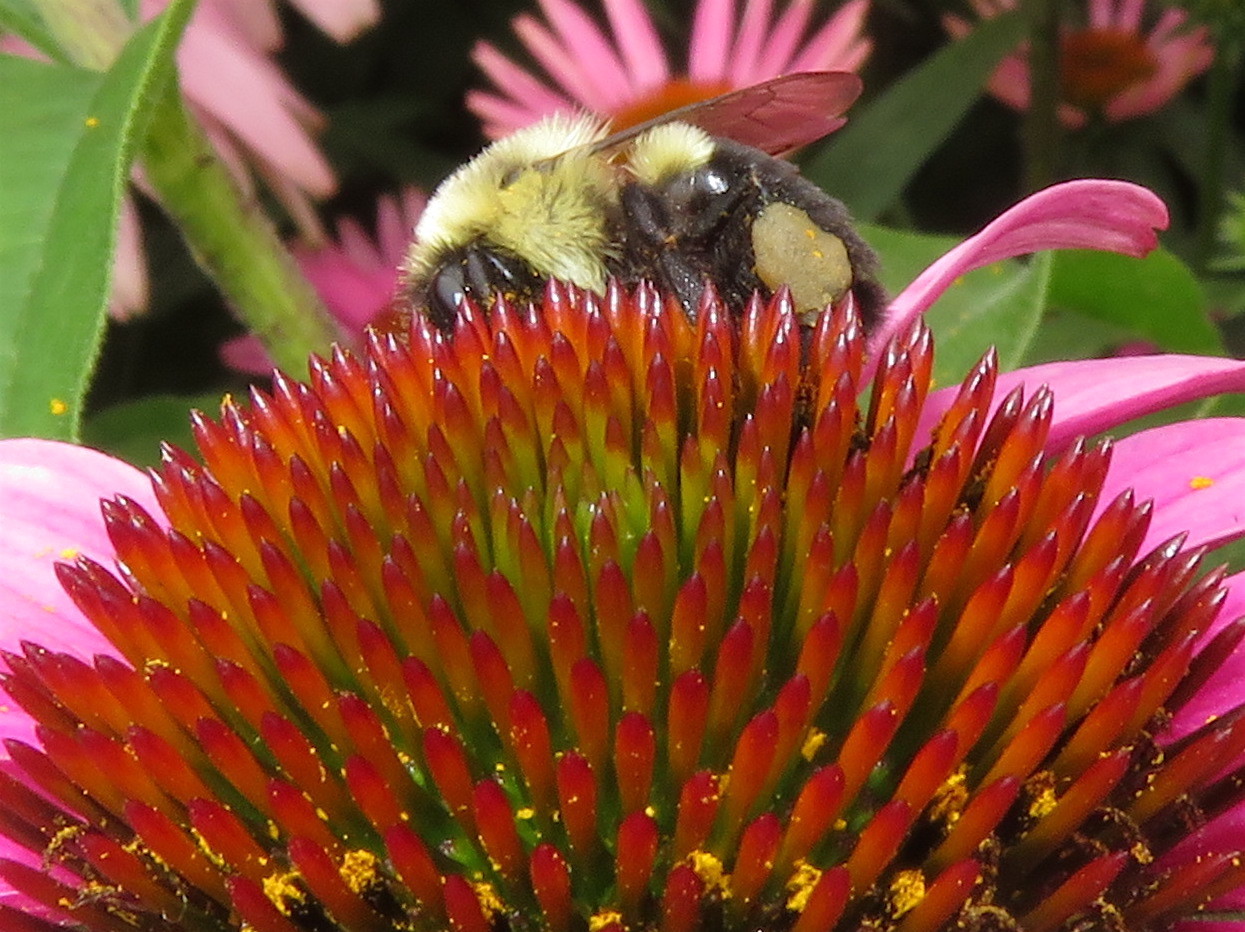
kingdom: Animalia
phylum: Arthropoda
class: Insecta
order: Hymenoptera
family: Apidae
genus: Bombus
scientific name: Bombus impatiens
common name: Common eastern bumble bee
